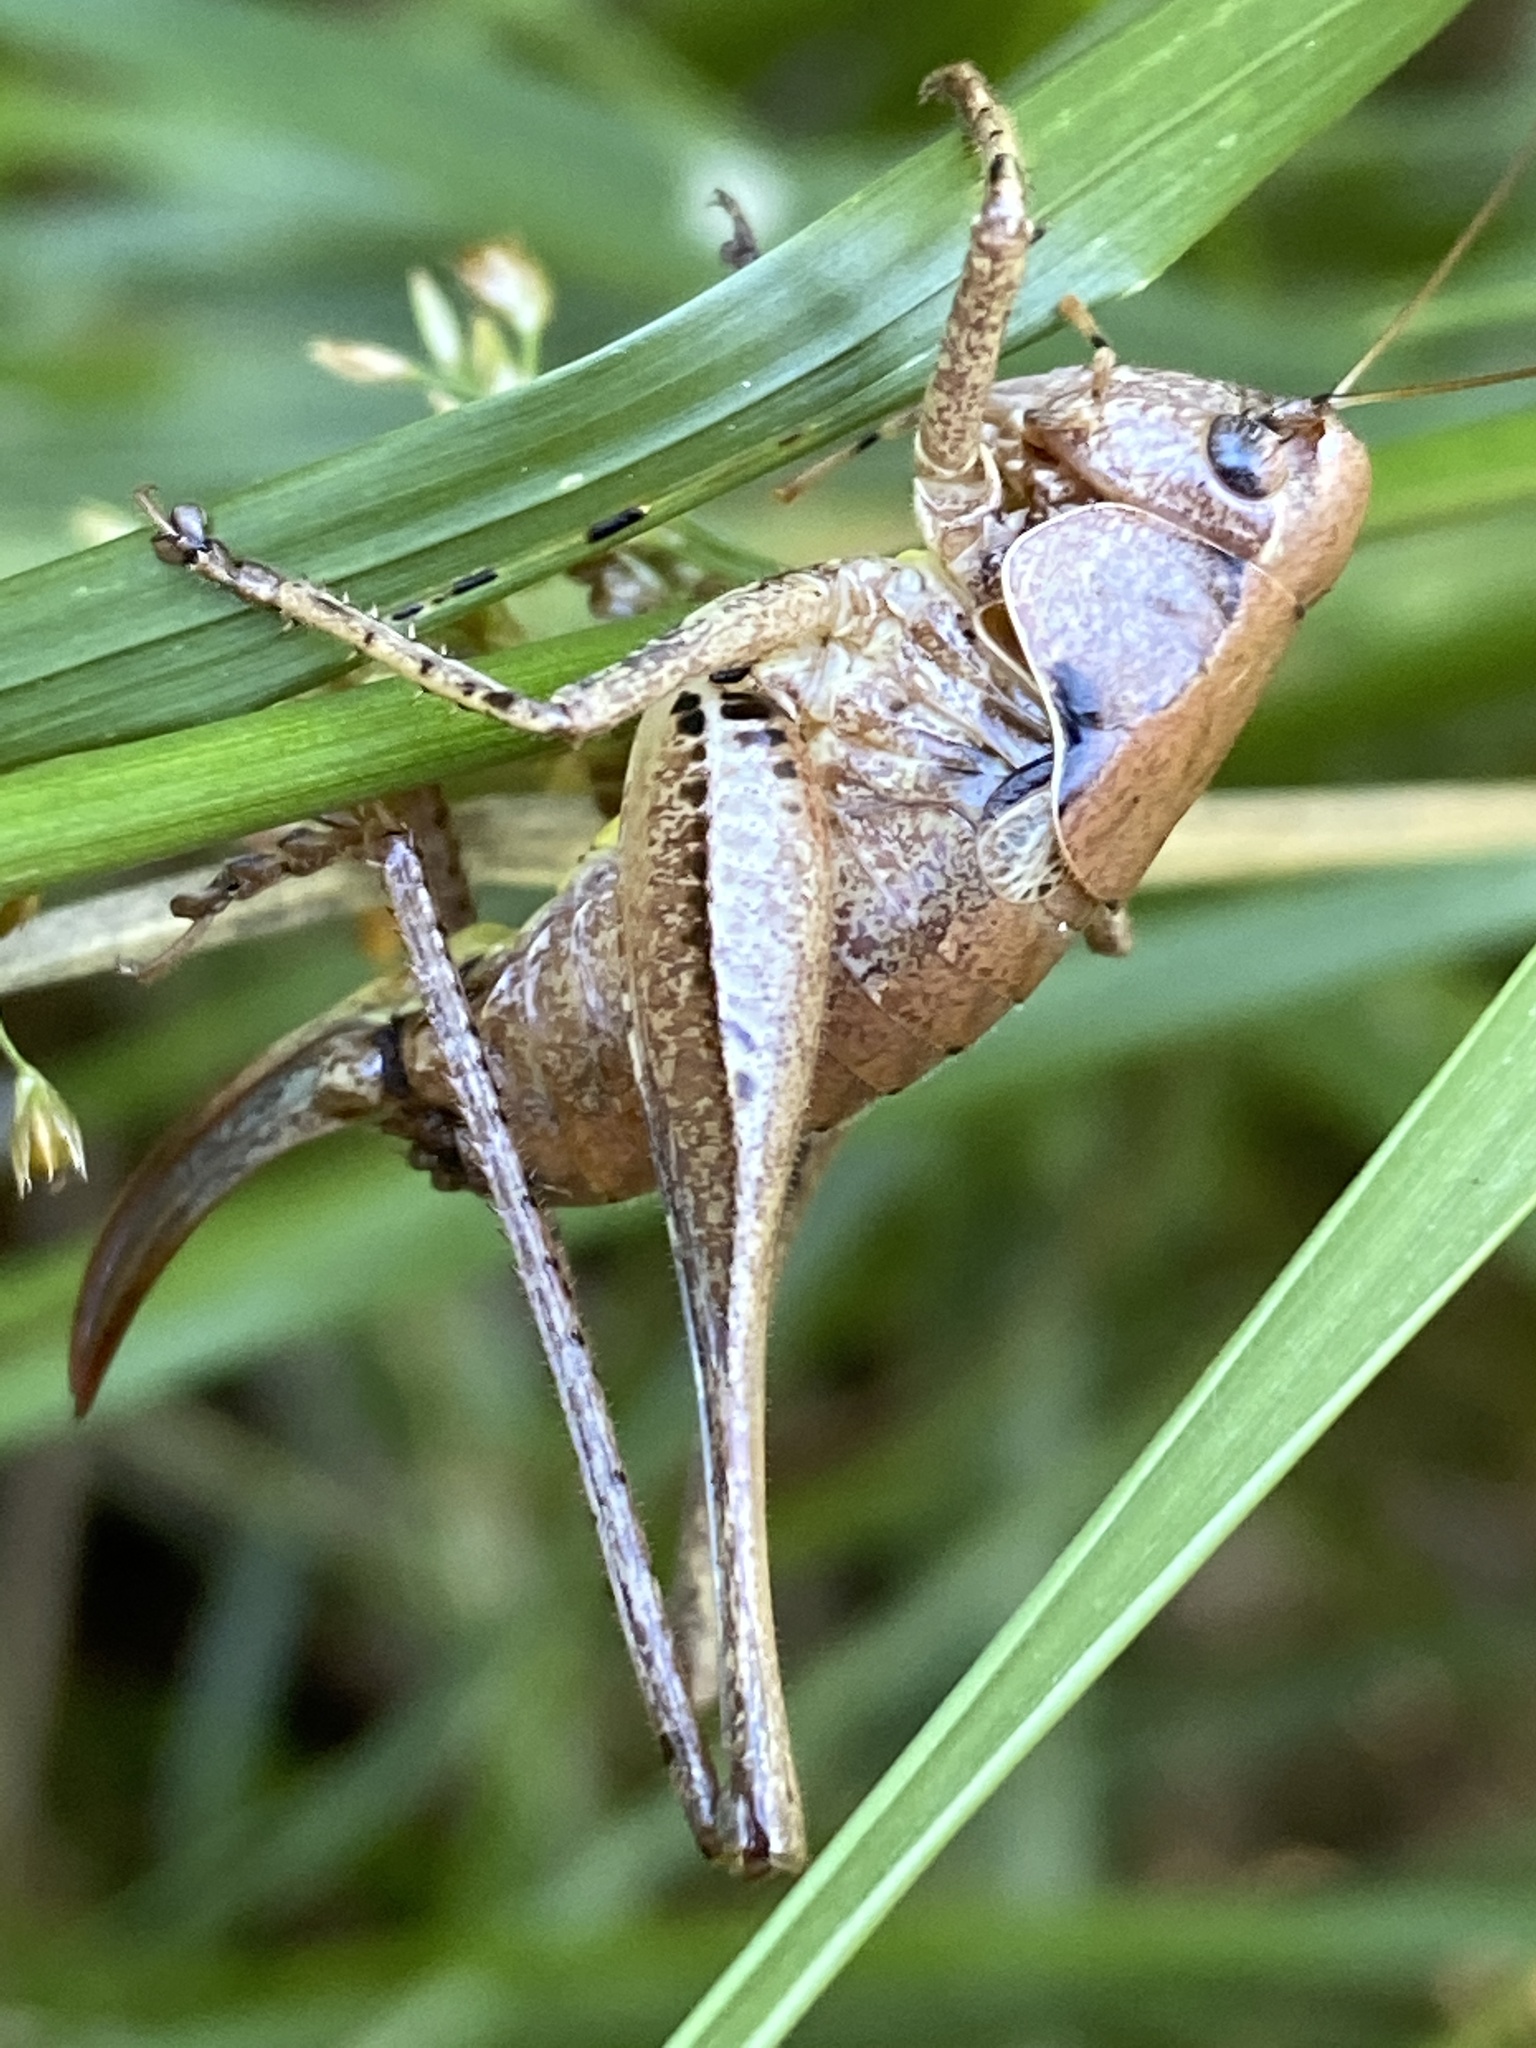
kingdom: Animalia
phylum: Arthropoda
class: Insecta
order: Orthoptera
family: Tettigoniidae
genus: Pholidoptera
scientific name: Pholidoptera griseoaptera
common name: Dark bush-cricket
